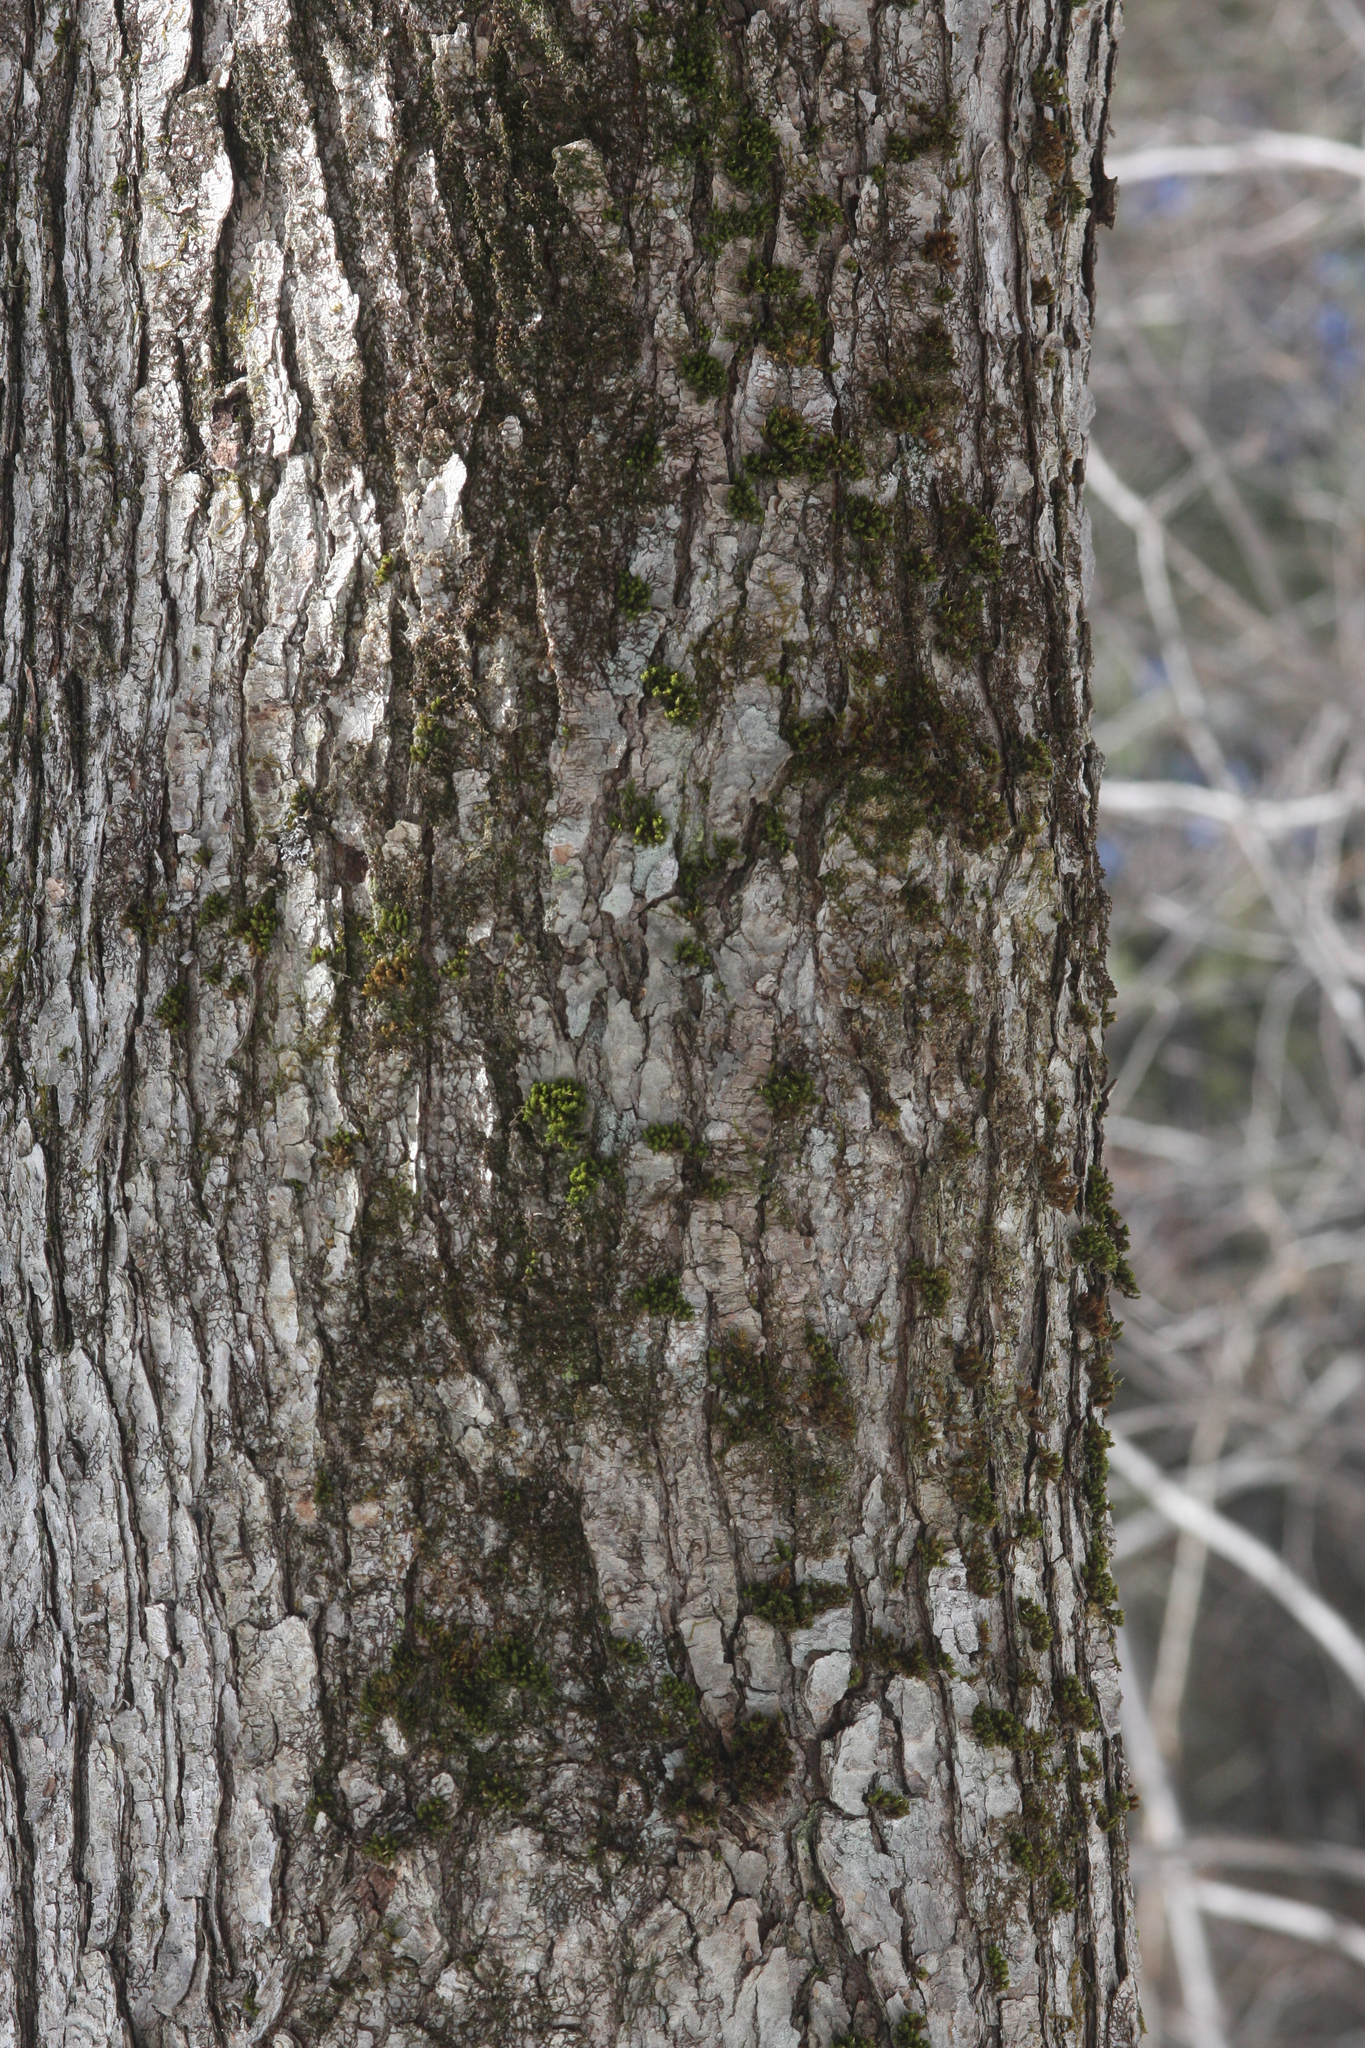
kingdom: Plantae
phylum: Bryophyta
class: Bryopsida
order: Orthotrichales
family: Orthotrichaceae
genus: Ulota
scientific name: Ulota crispa
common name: Crisped pincushion moss
